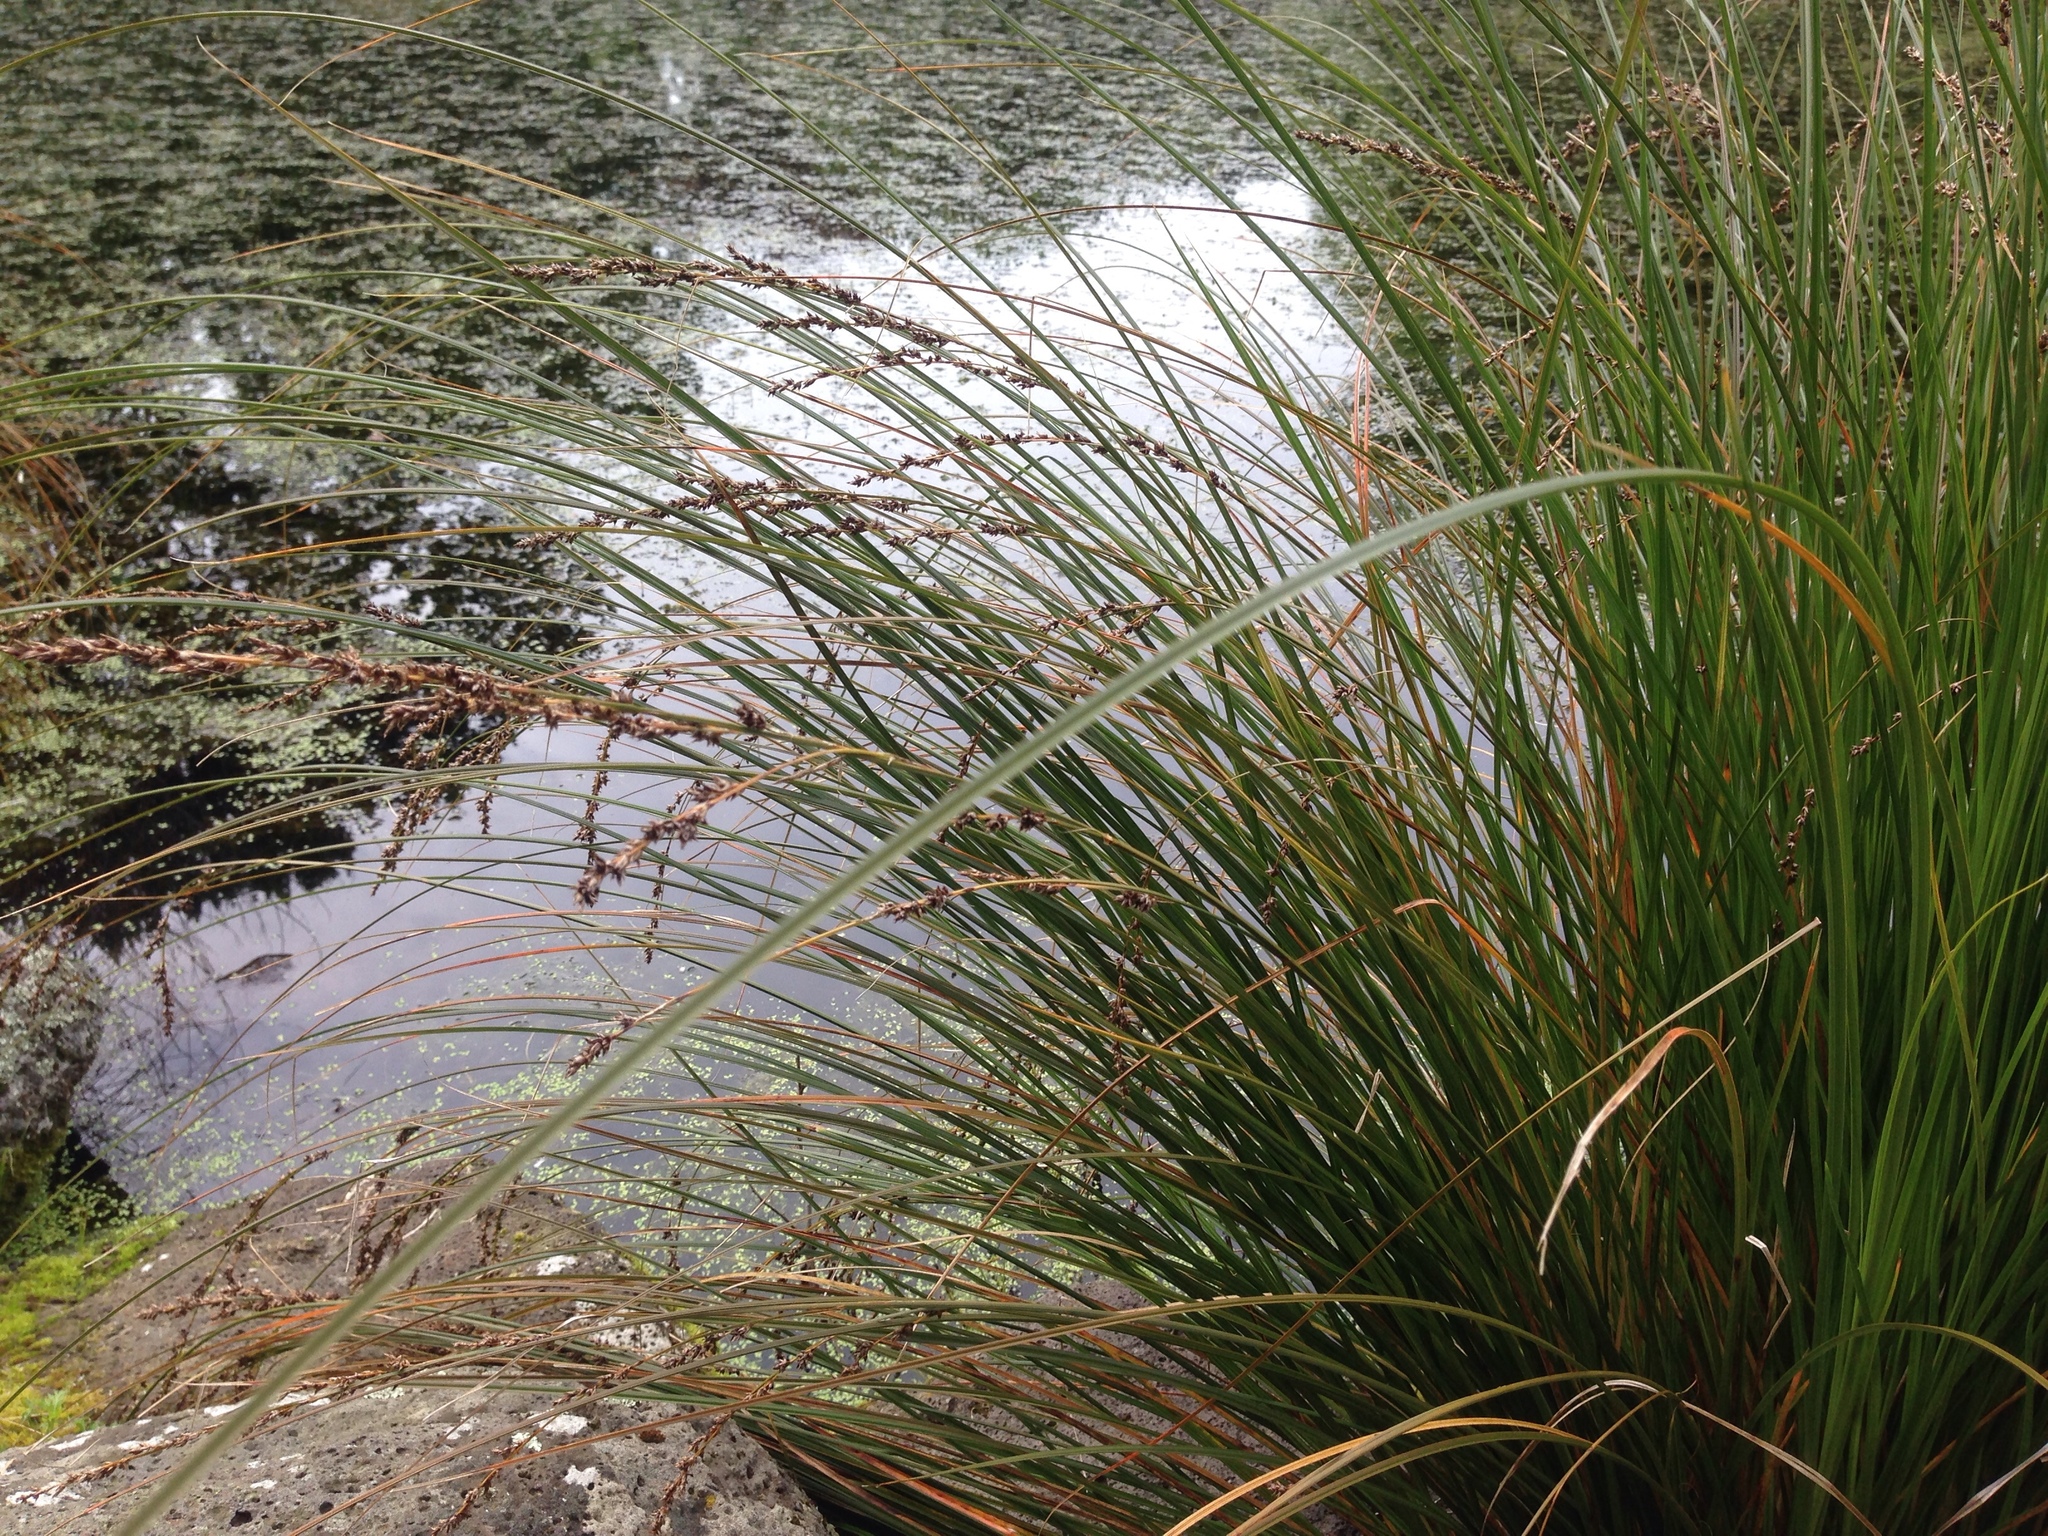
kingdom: Plantae
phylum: Tracheophyta
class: Liliopsida
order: Poales
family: Cyperaceae
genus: Carex
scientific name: Carex secta
